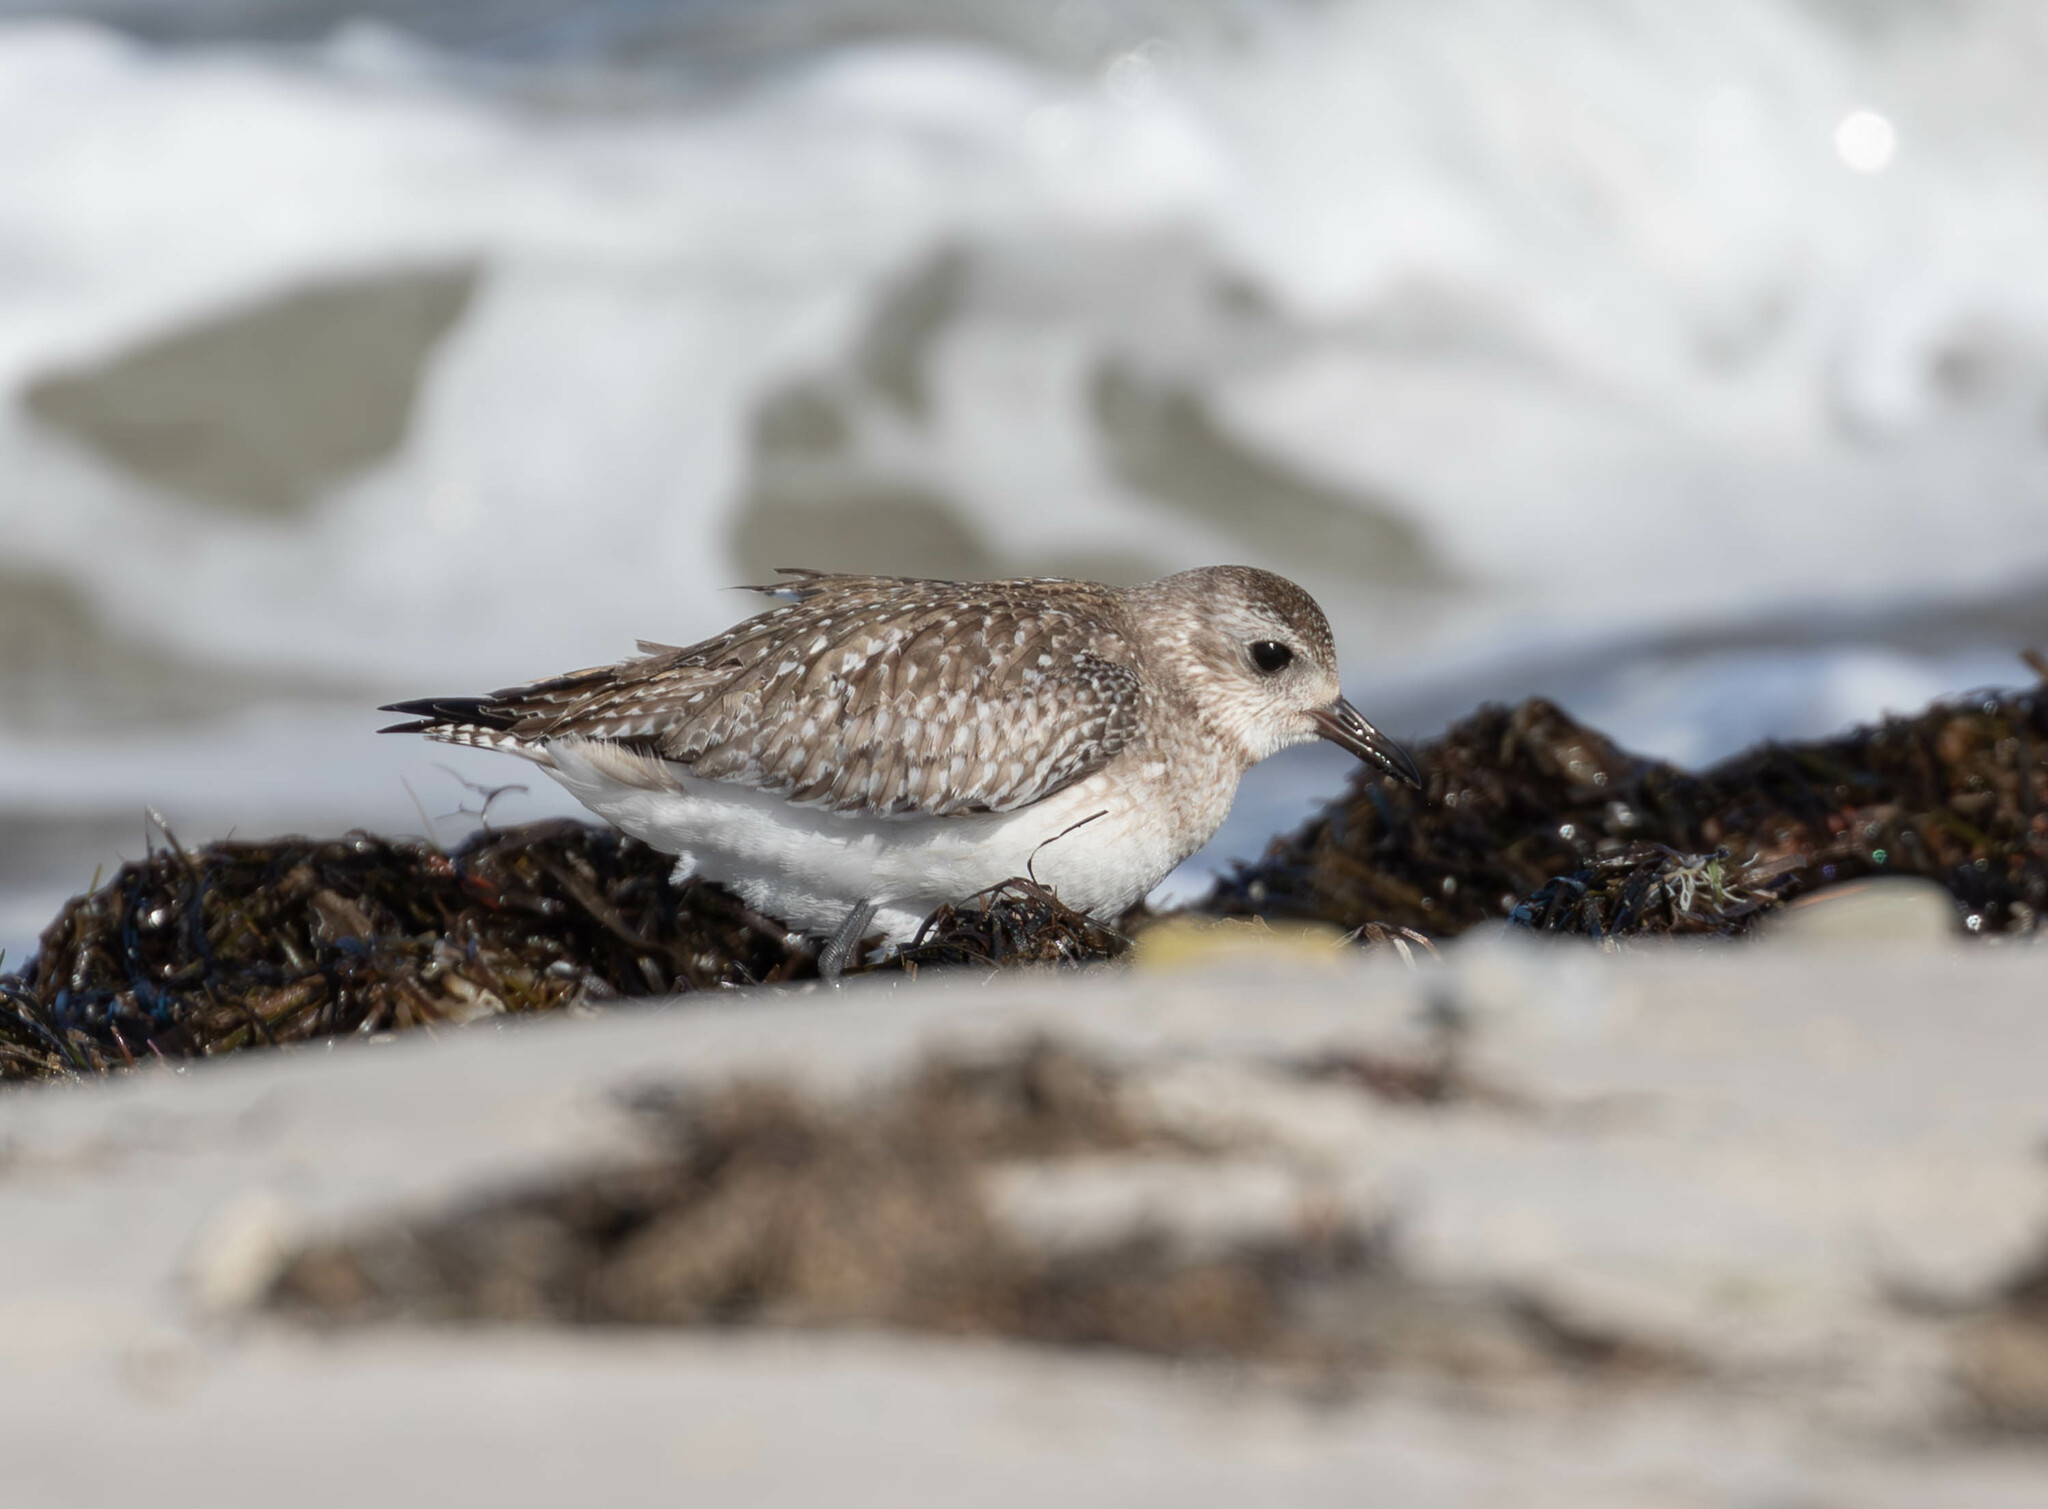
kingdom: Animalia
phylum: Chordata
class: Aves
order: Charadriiformes
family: Charadriidae
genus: Pluvialis
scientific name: Pluvialis squatarola
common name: Grey plover
